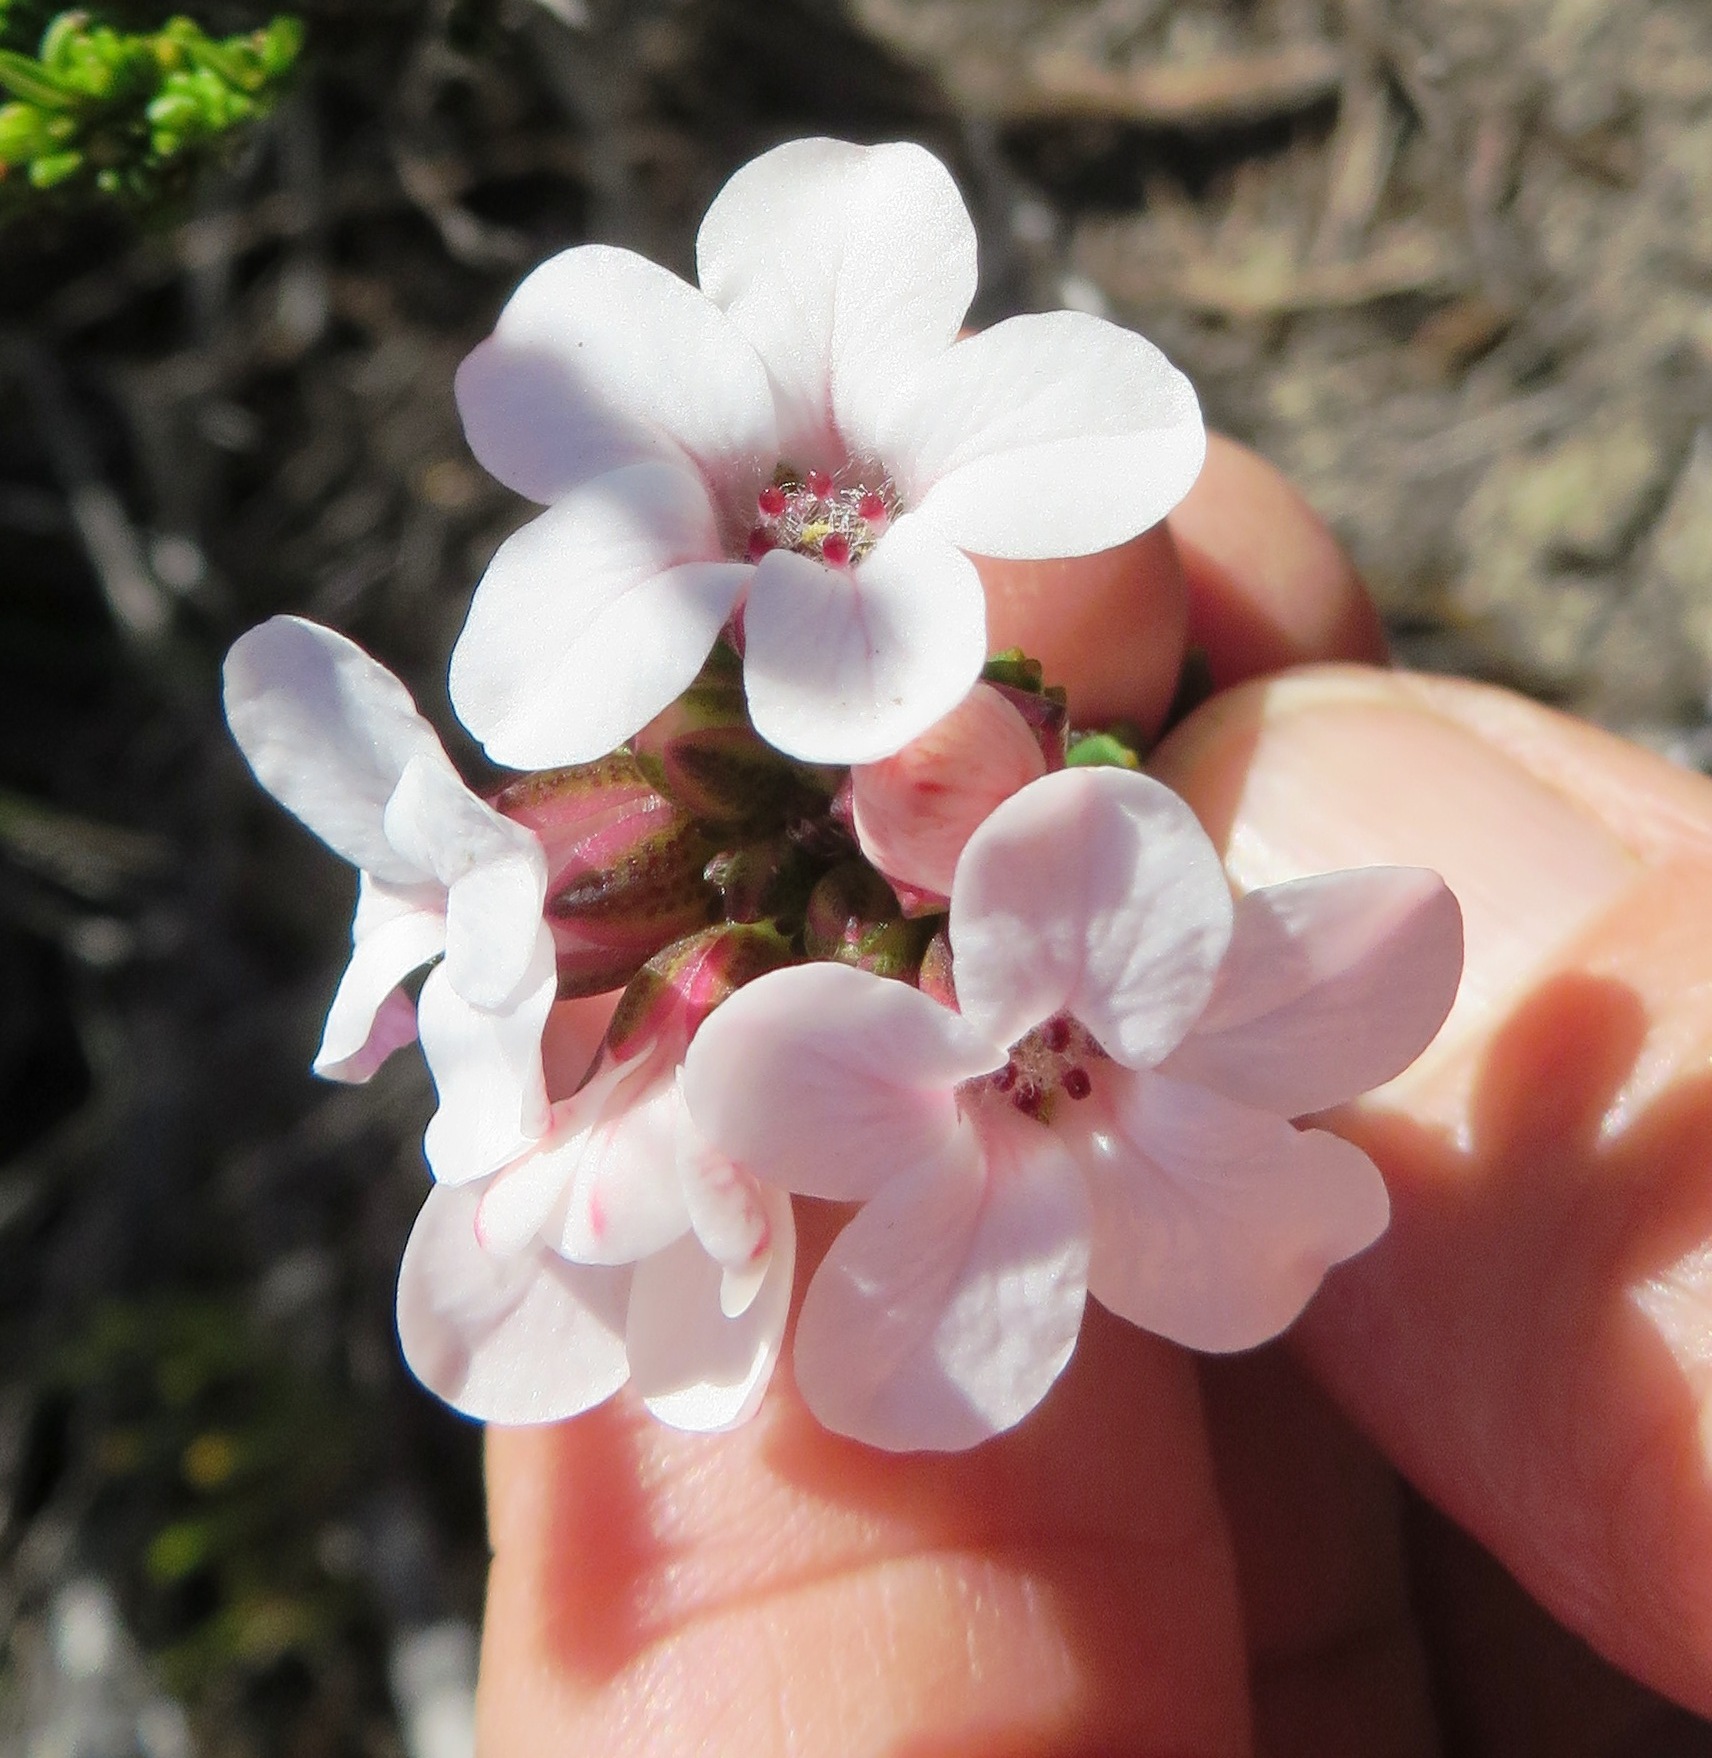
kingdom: Plantae
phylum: Tracheophyta
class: Magnoliopsida
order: Sapindales
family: Rutaceae
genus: Adenandra
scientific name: Adenandra viscida
